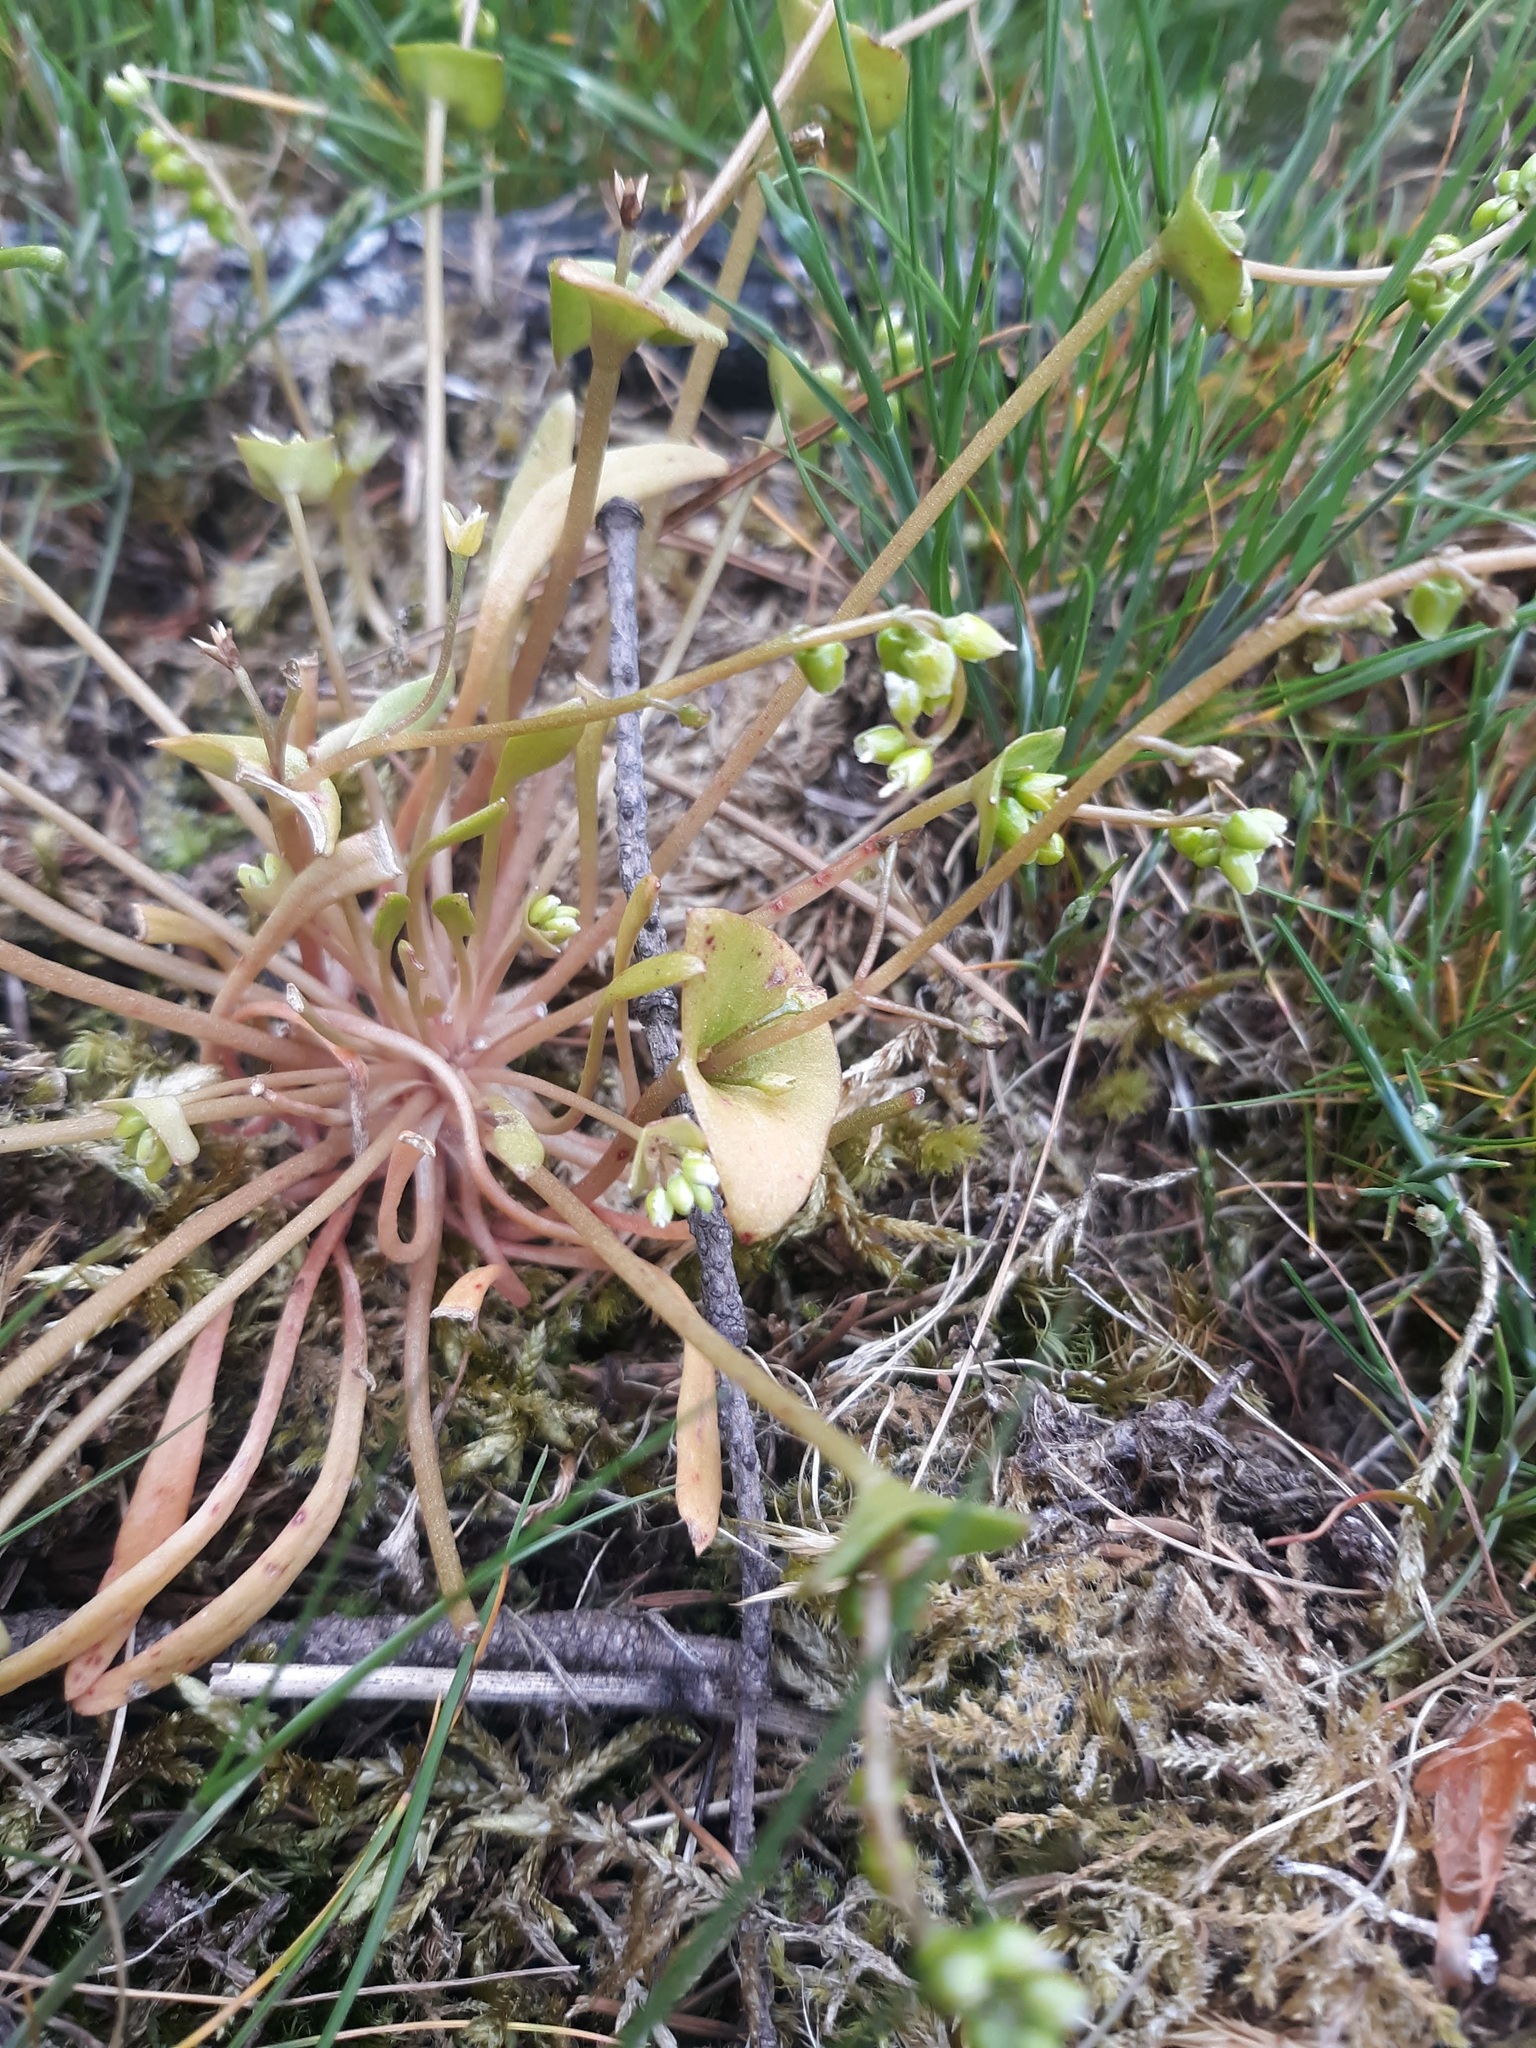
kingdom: Plantae
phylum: Tracheophyta
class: Magnoliopsida
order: Caryophyllales
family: Montiaceae
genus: Claytonia
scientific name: Claytonia parviflora
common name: Indian-lettuce
